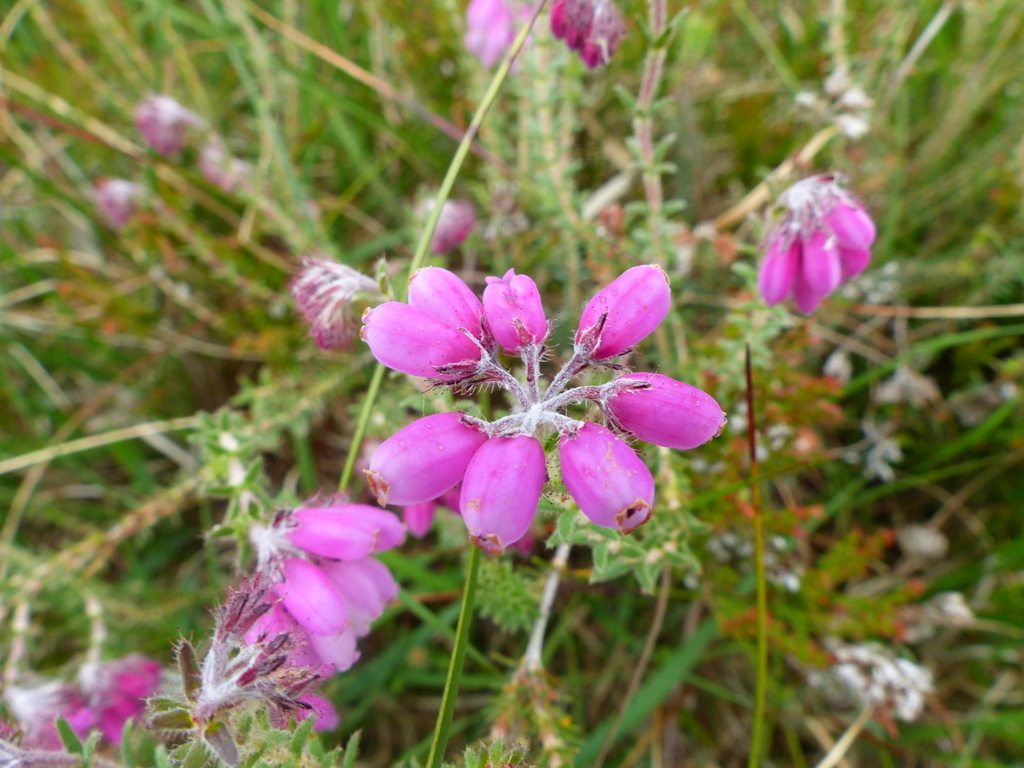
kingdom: Plantae
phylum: Tracheophyta
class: Magnoliopsida
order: Ericales
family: Ericaceae
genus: Erica
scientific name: Erica tetralix
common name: Cross-leaved heath
